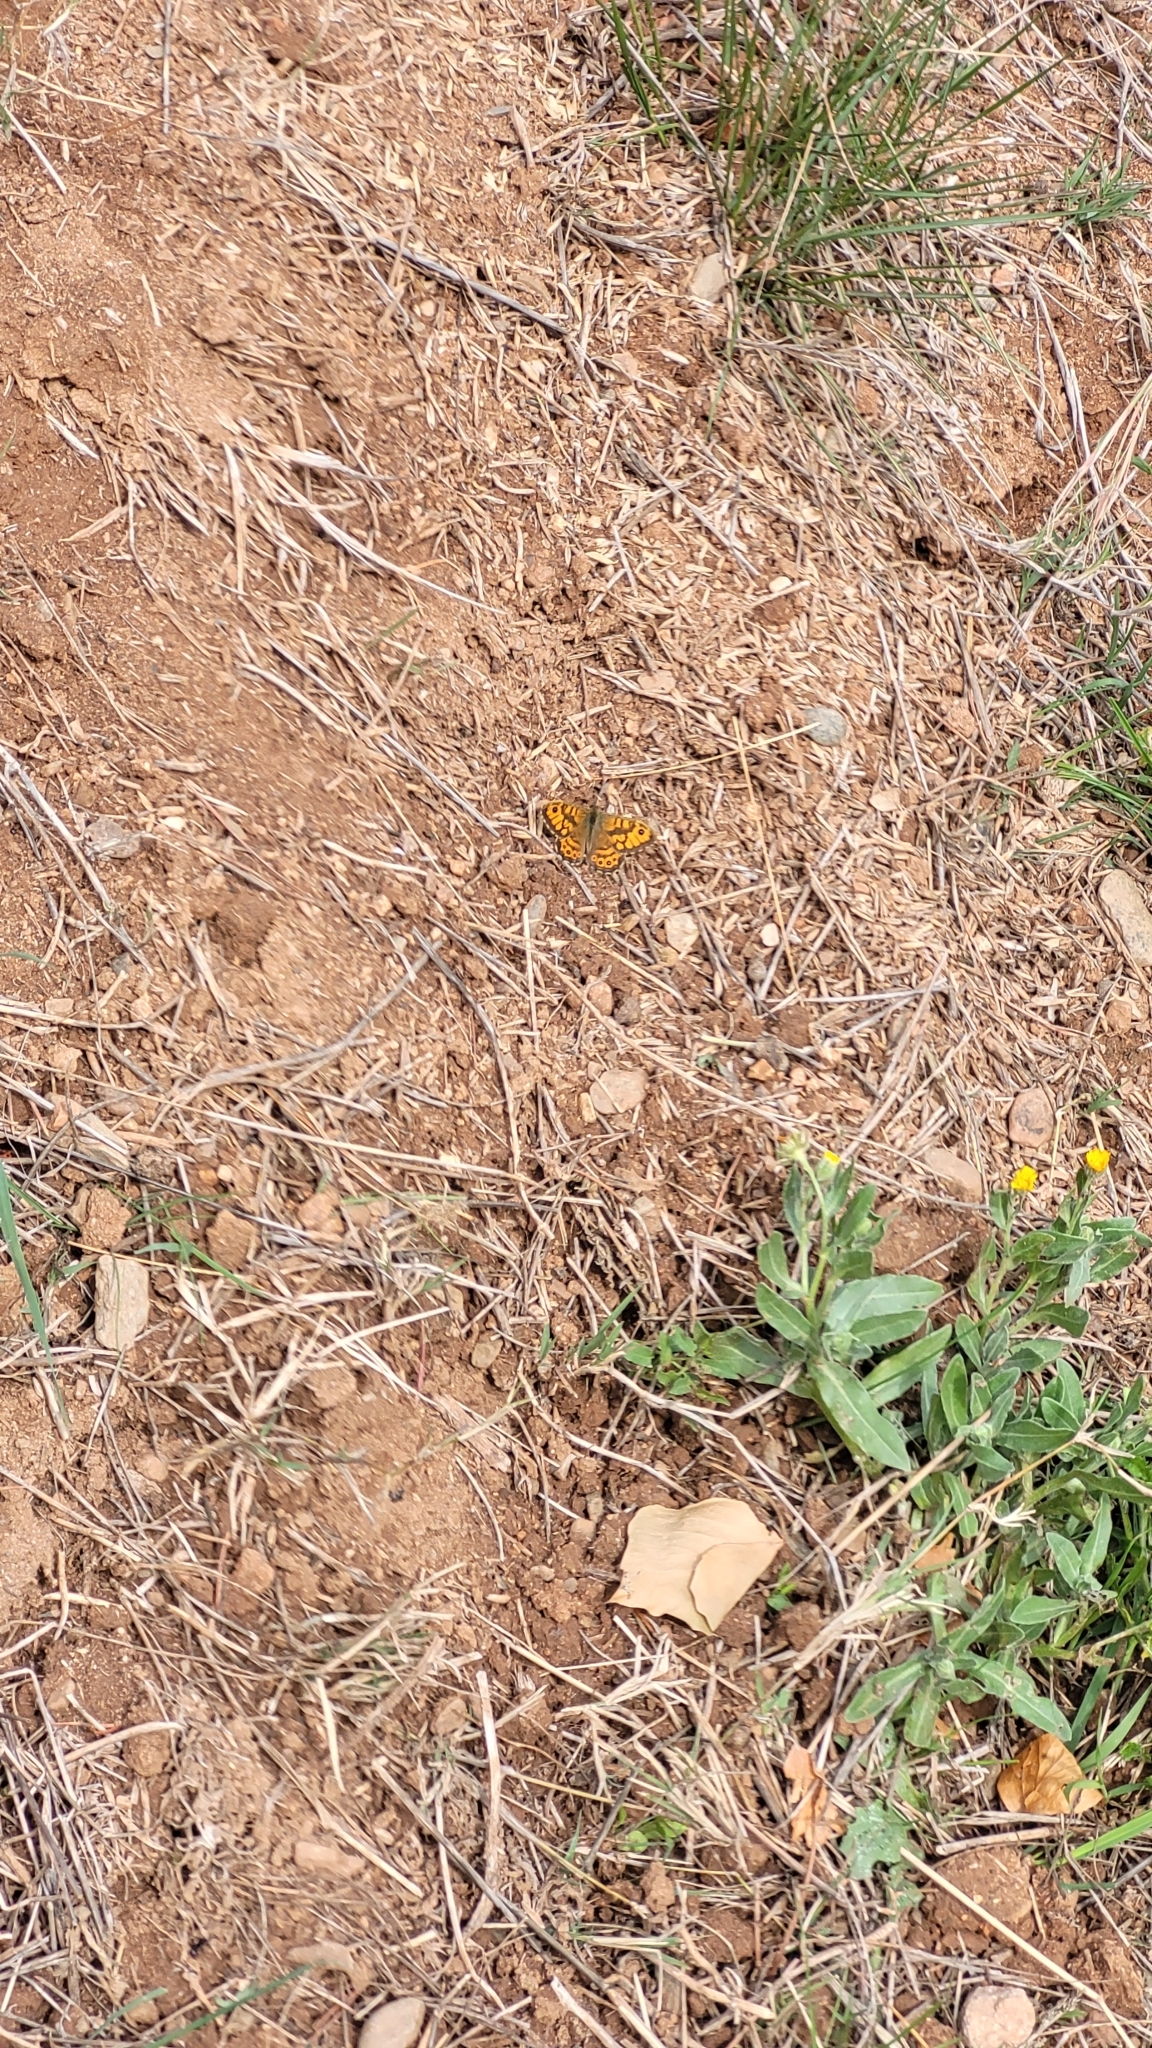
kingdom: Animalia
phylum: Arthropoda
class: Insecta
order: Lepidoptera
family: Nymphalidae
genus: Pararge
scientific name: Pararge Lasiommata megera
